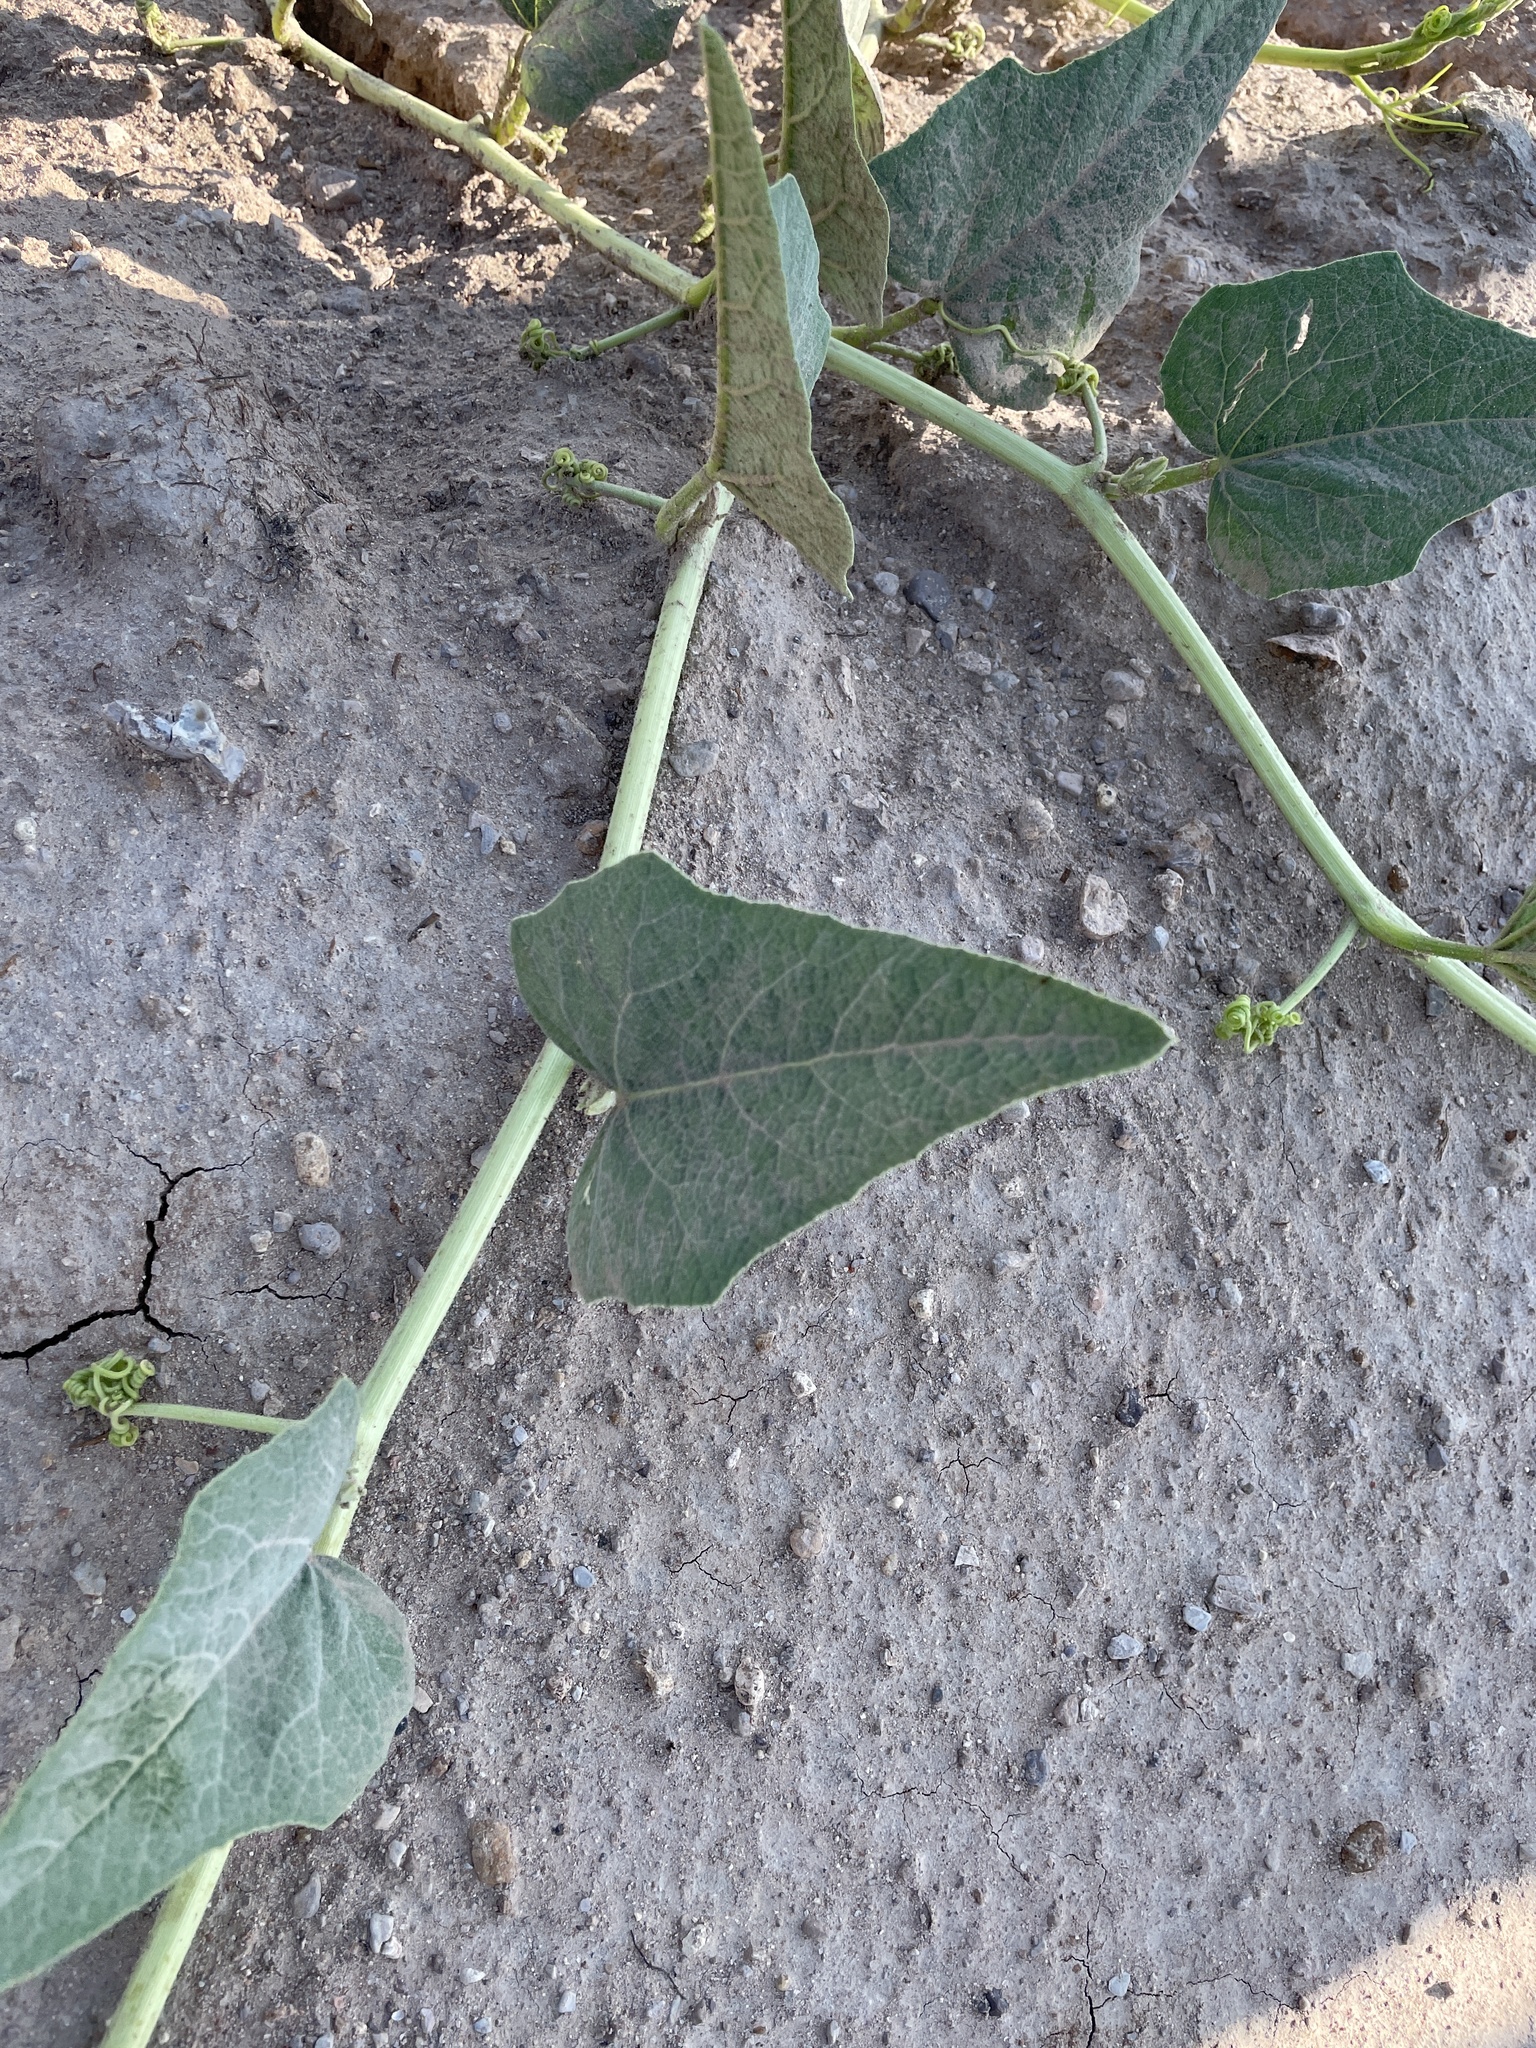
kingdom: Plantae
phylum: Tracheophyta
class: Magnoliopsida
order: Cucurbitales
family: Cucurbitaceae
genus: Cucurbita
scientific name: Cucurbita foetidissima
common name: Buffalo gourd
